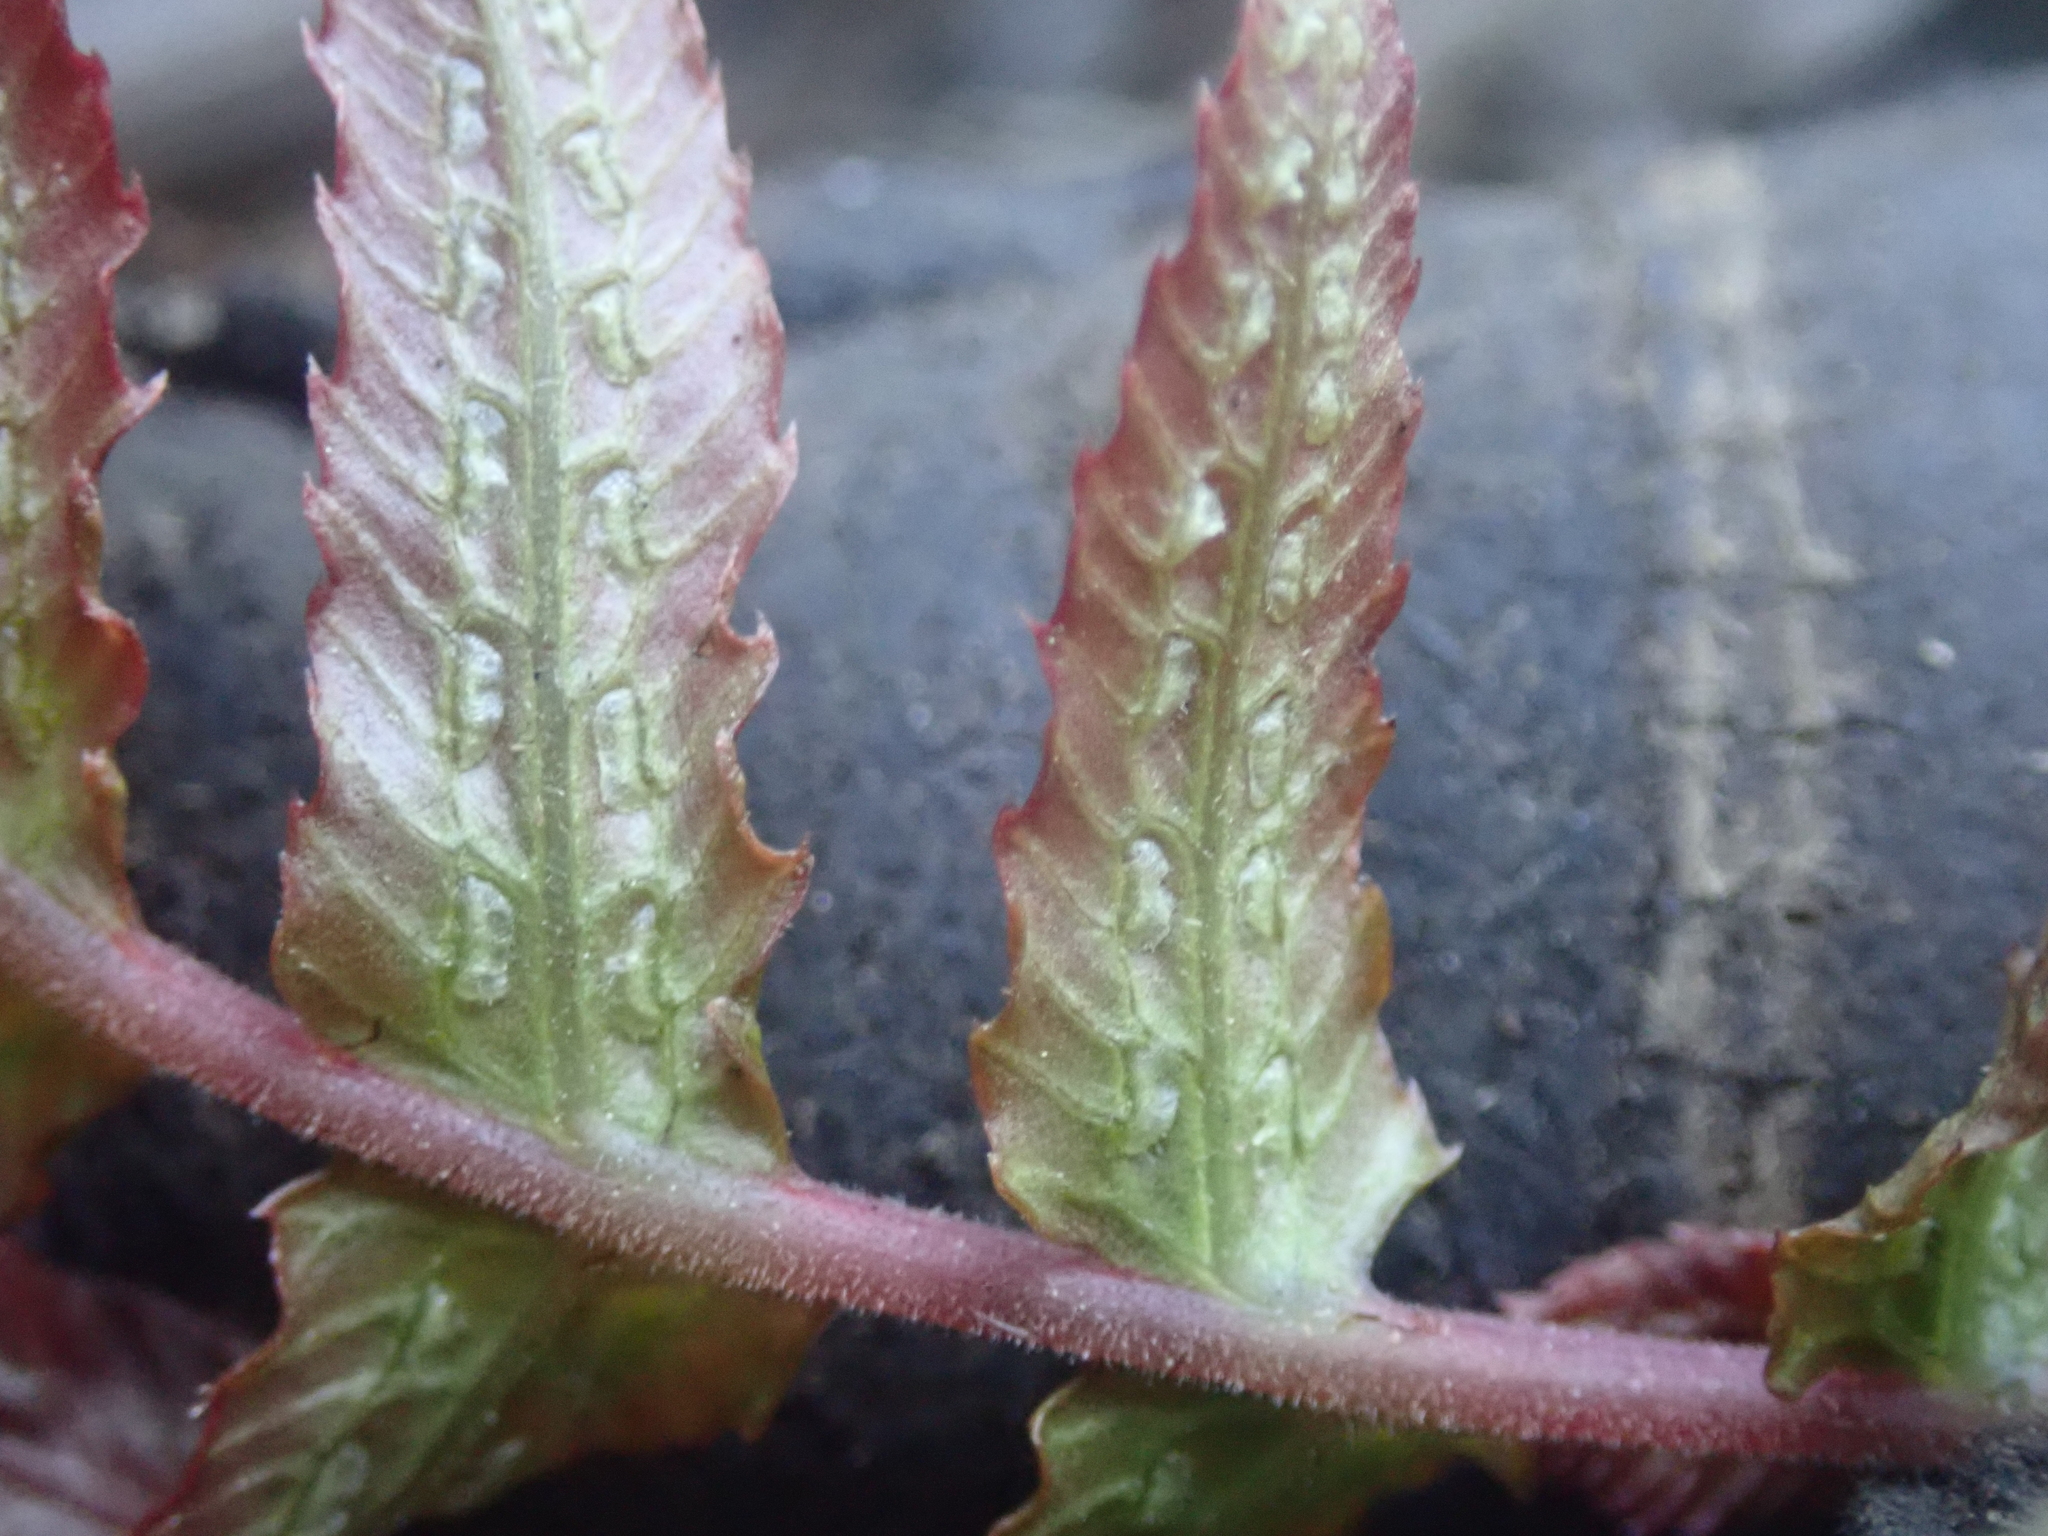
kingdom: Plantae
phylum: Tracheophyta
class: Polypodiopsida
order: Polypodiales
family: Blechnaceae
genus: Doodia
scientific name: Doodia australis
